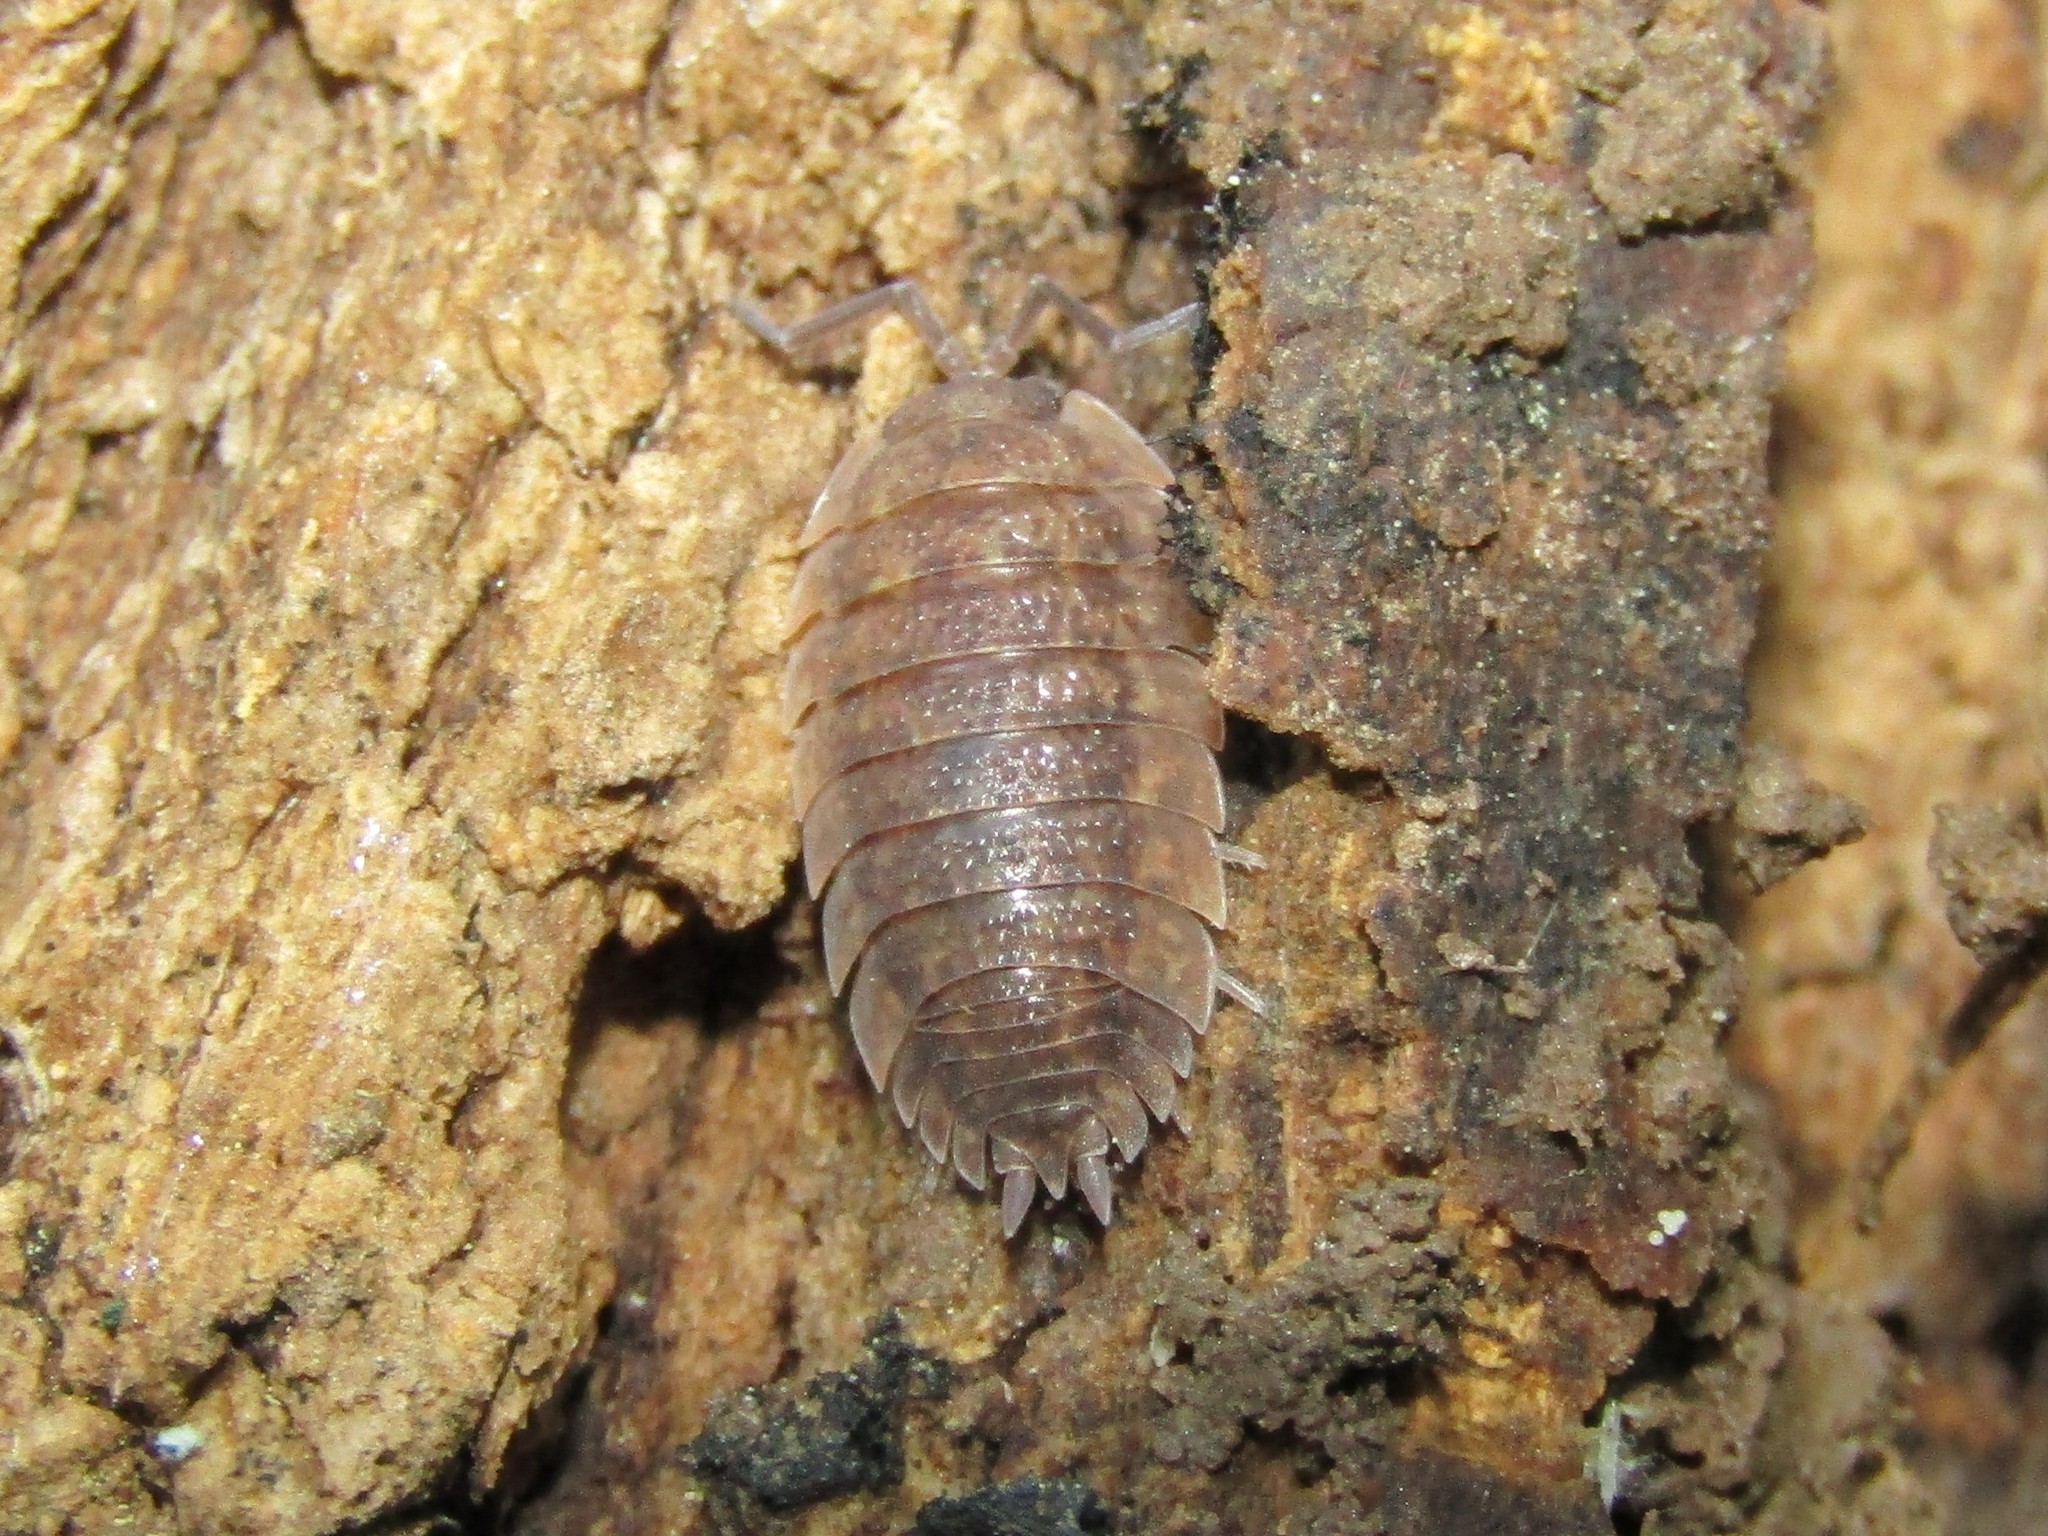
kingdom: Animalia
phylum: Arthropoda
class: Malacostraca
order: Isopoda
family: Porcellionidae
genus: Porcellio
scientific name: Porcellio scaber
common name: Common rough woodlouse
